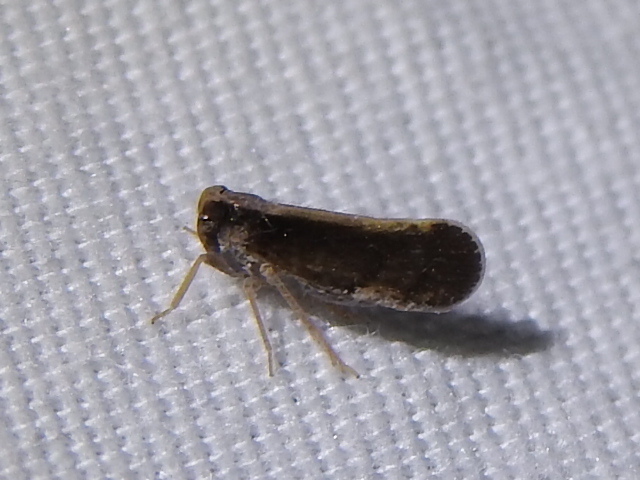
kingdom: Animalia
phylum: Arthropoda
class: Insecta
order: Hemiptera
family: Cixiidae
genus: Pintalia
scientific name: Pintalia delicata
